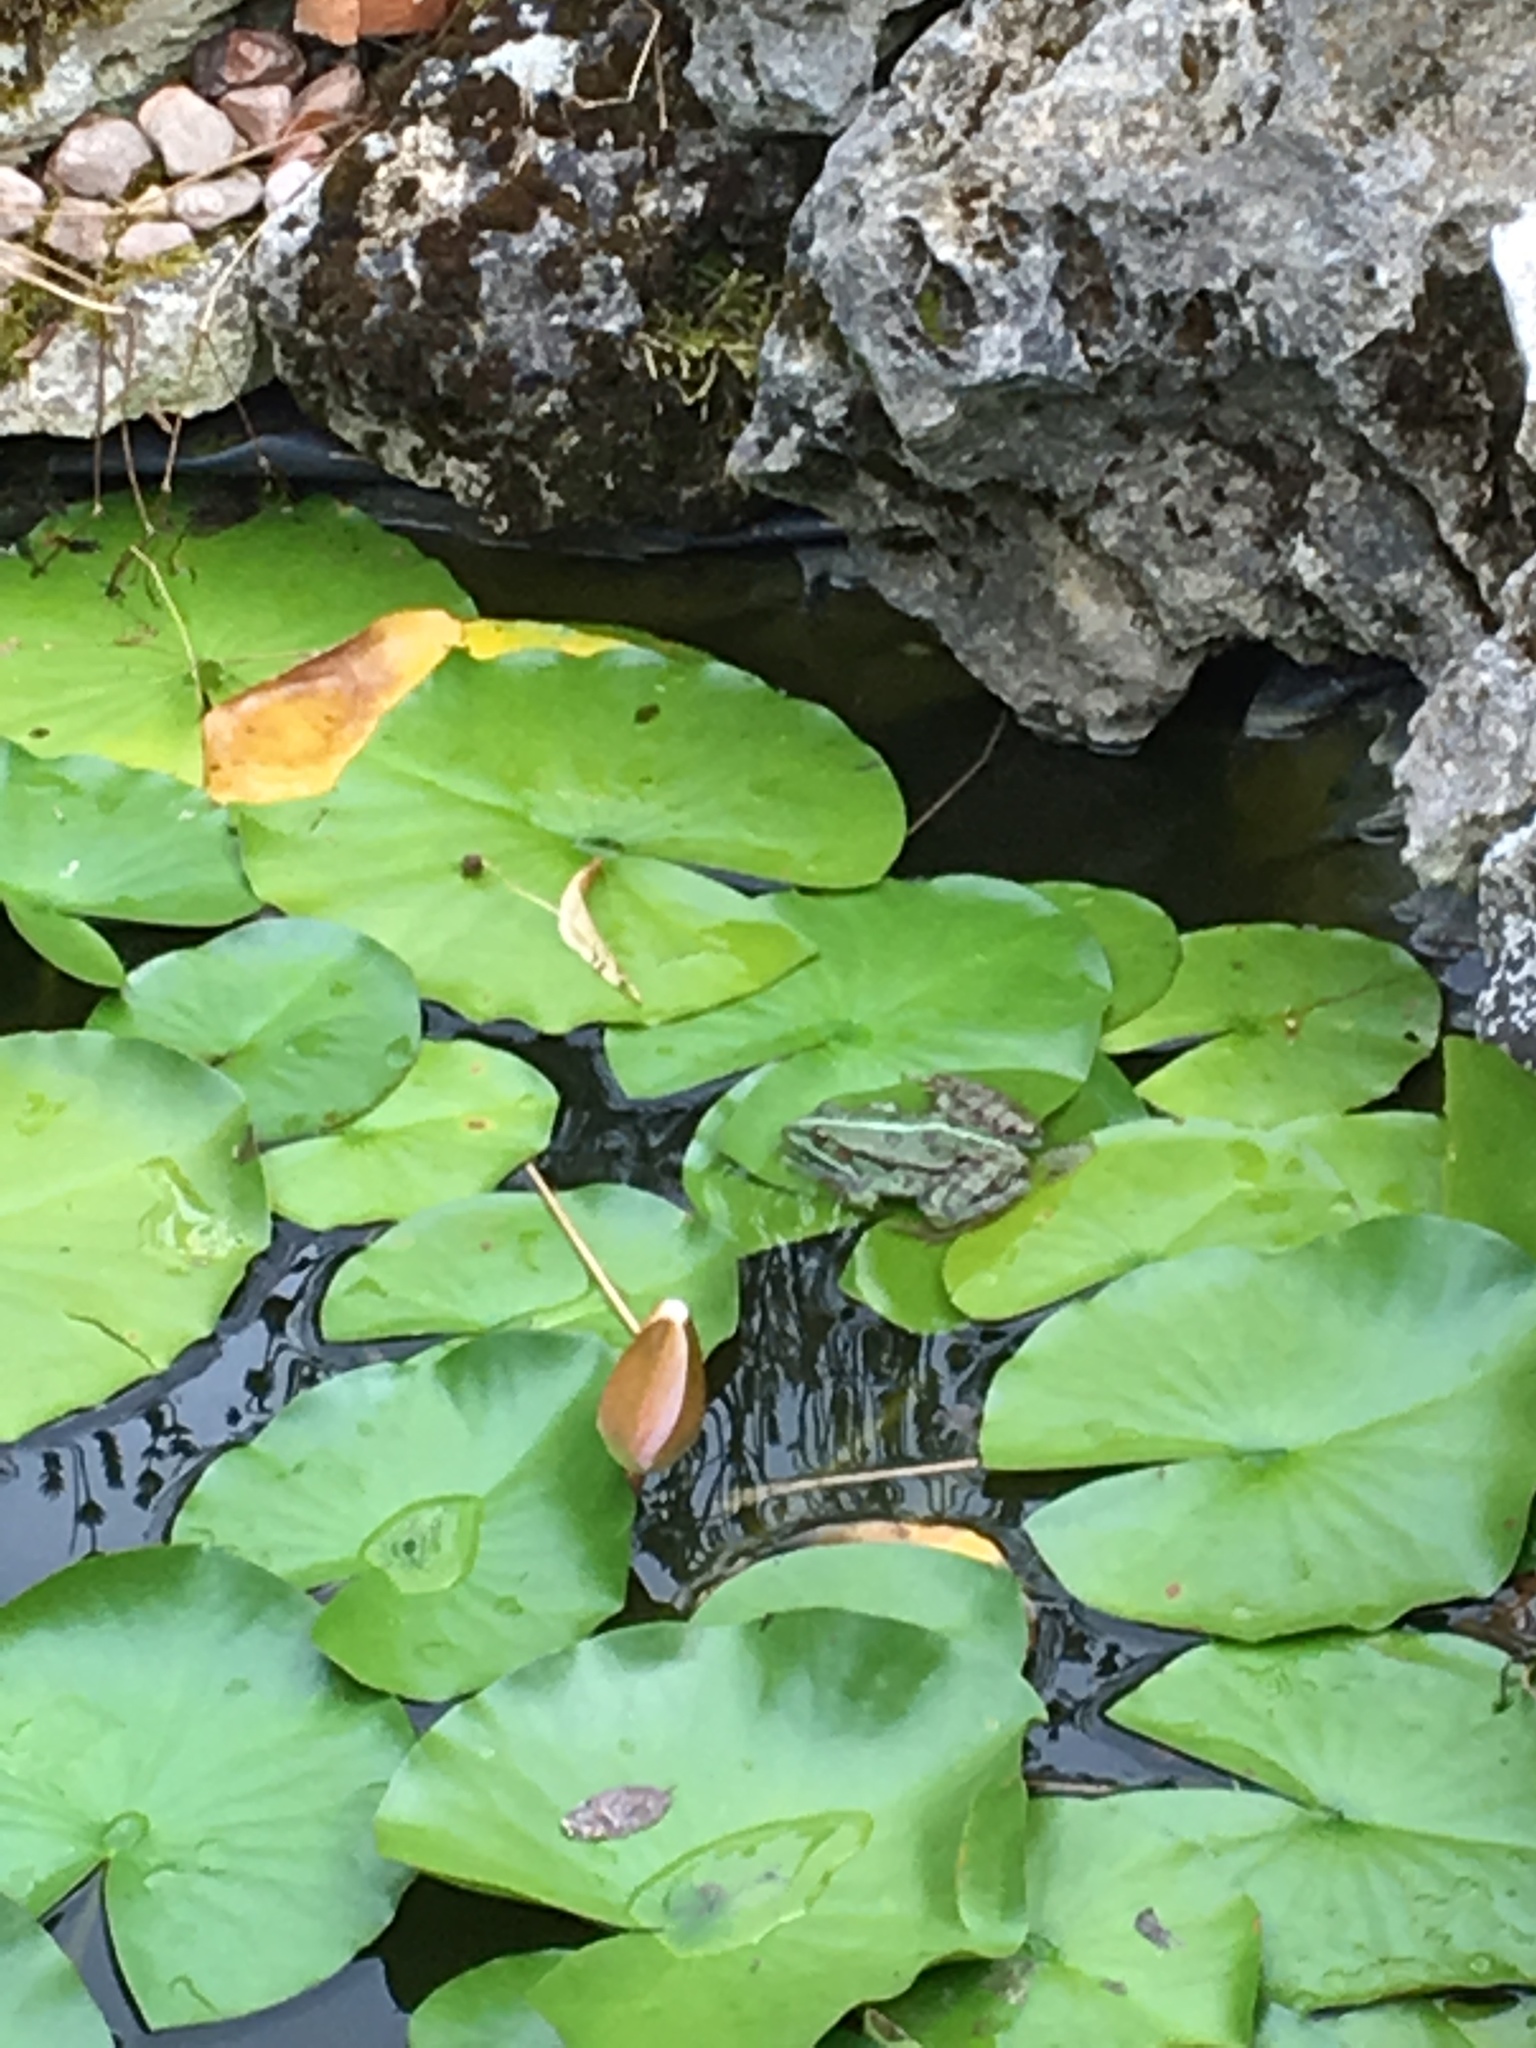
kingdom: Animalia
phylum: Chordata
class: Amphibia
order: Anura
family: Ranidae
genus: Pelophylax
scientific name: Pelophylax
